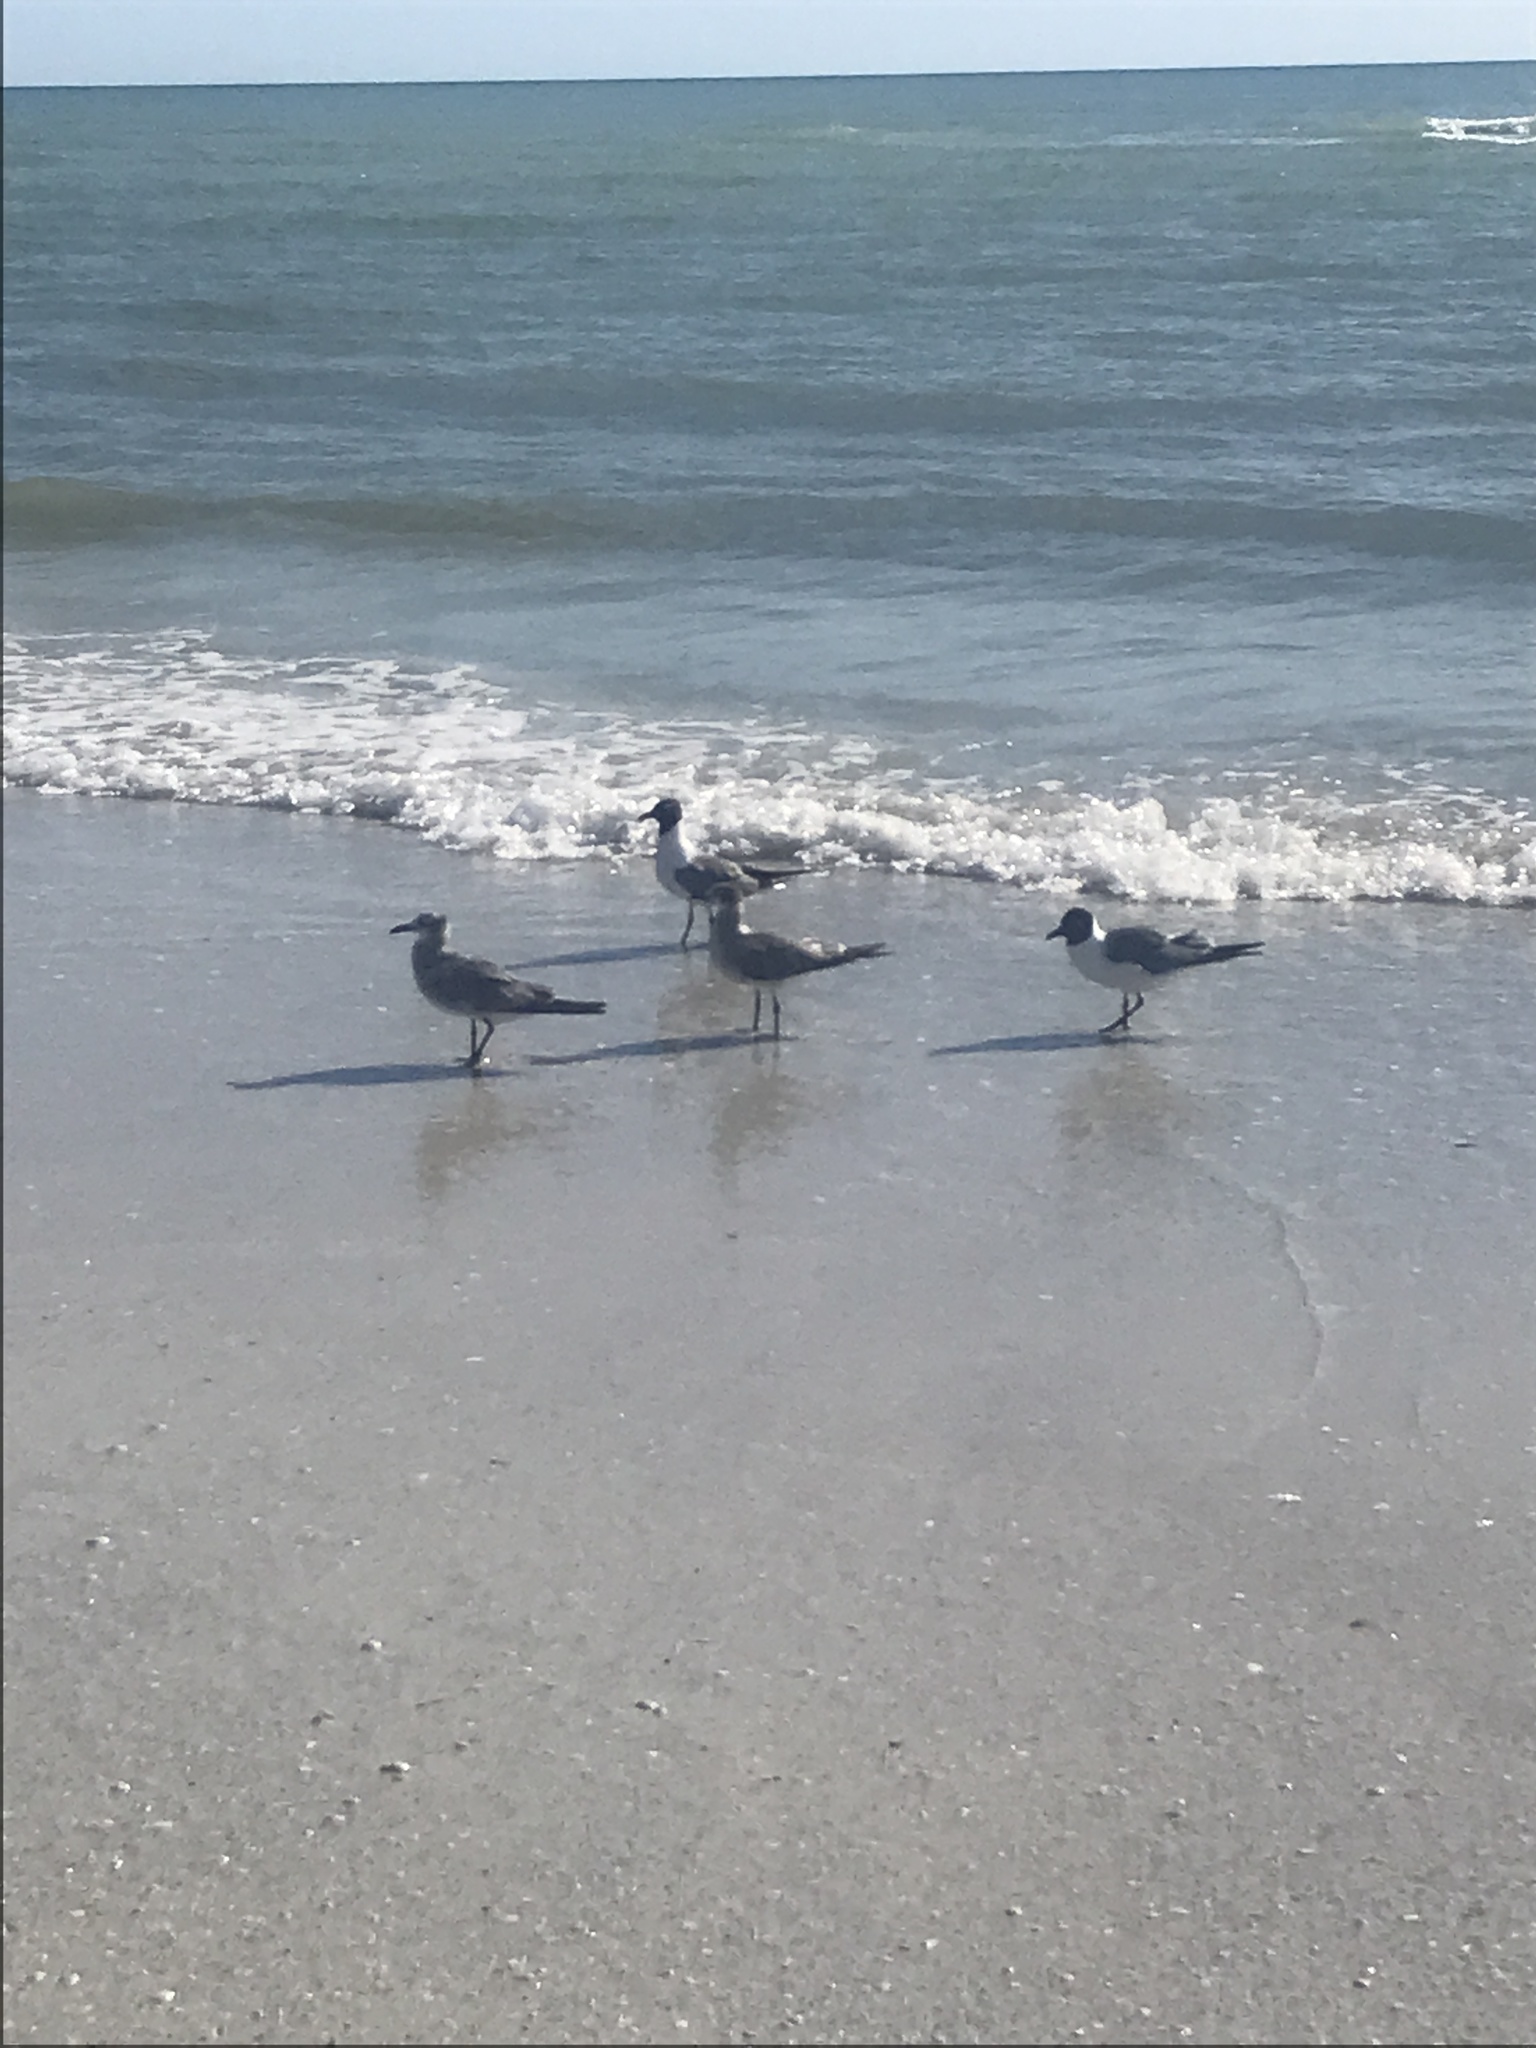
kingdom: Animalia
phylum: Chordata
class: Aves
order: Charadriiformes
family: Laridae
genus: Leucophaeus
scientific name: Leucophaeus atricilla
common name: Laughing gull
